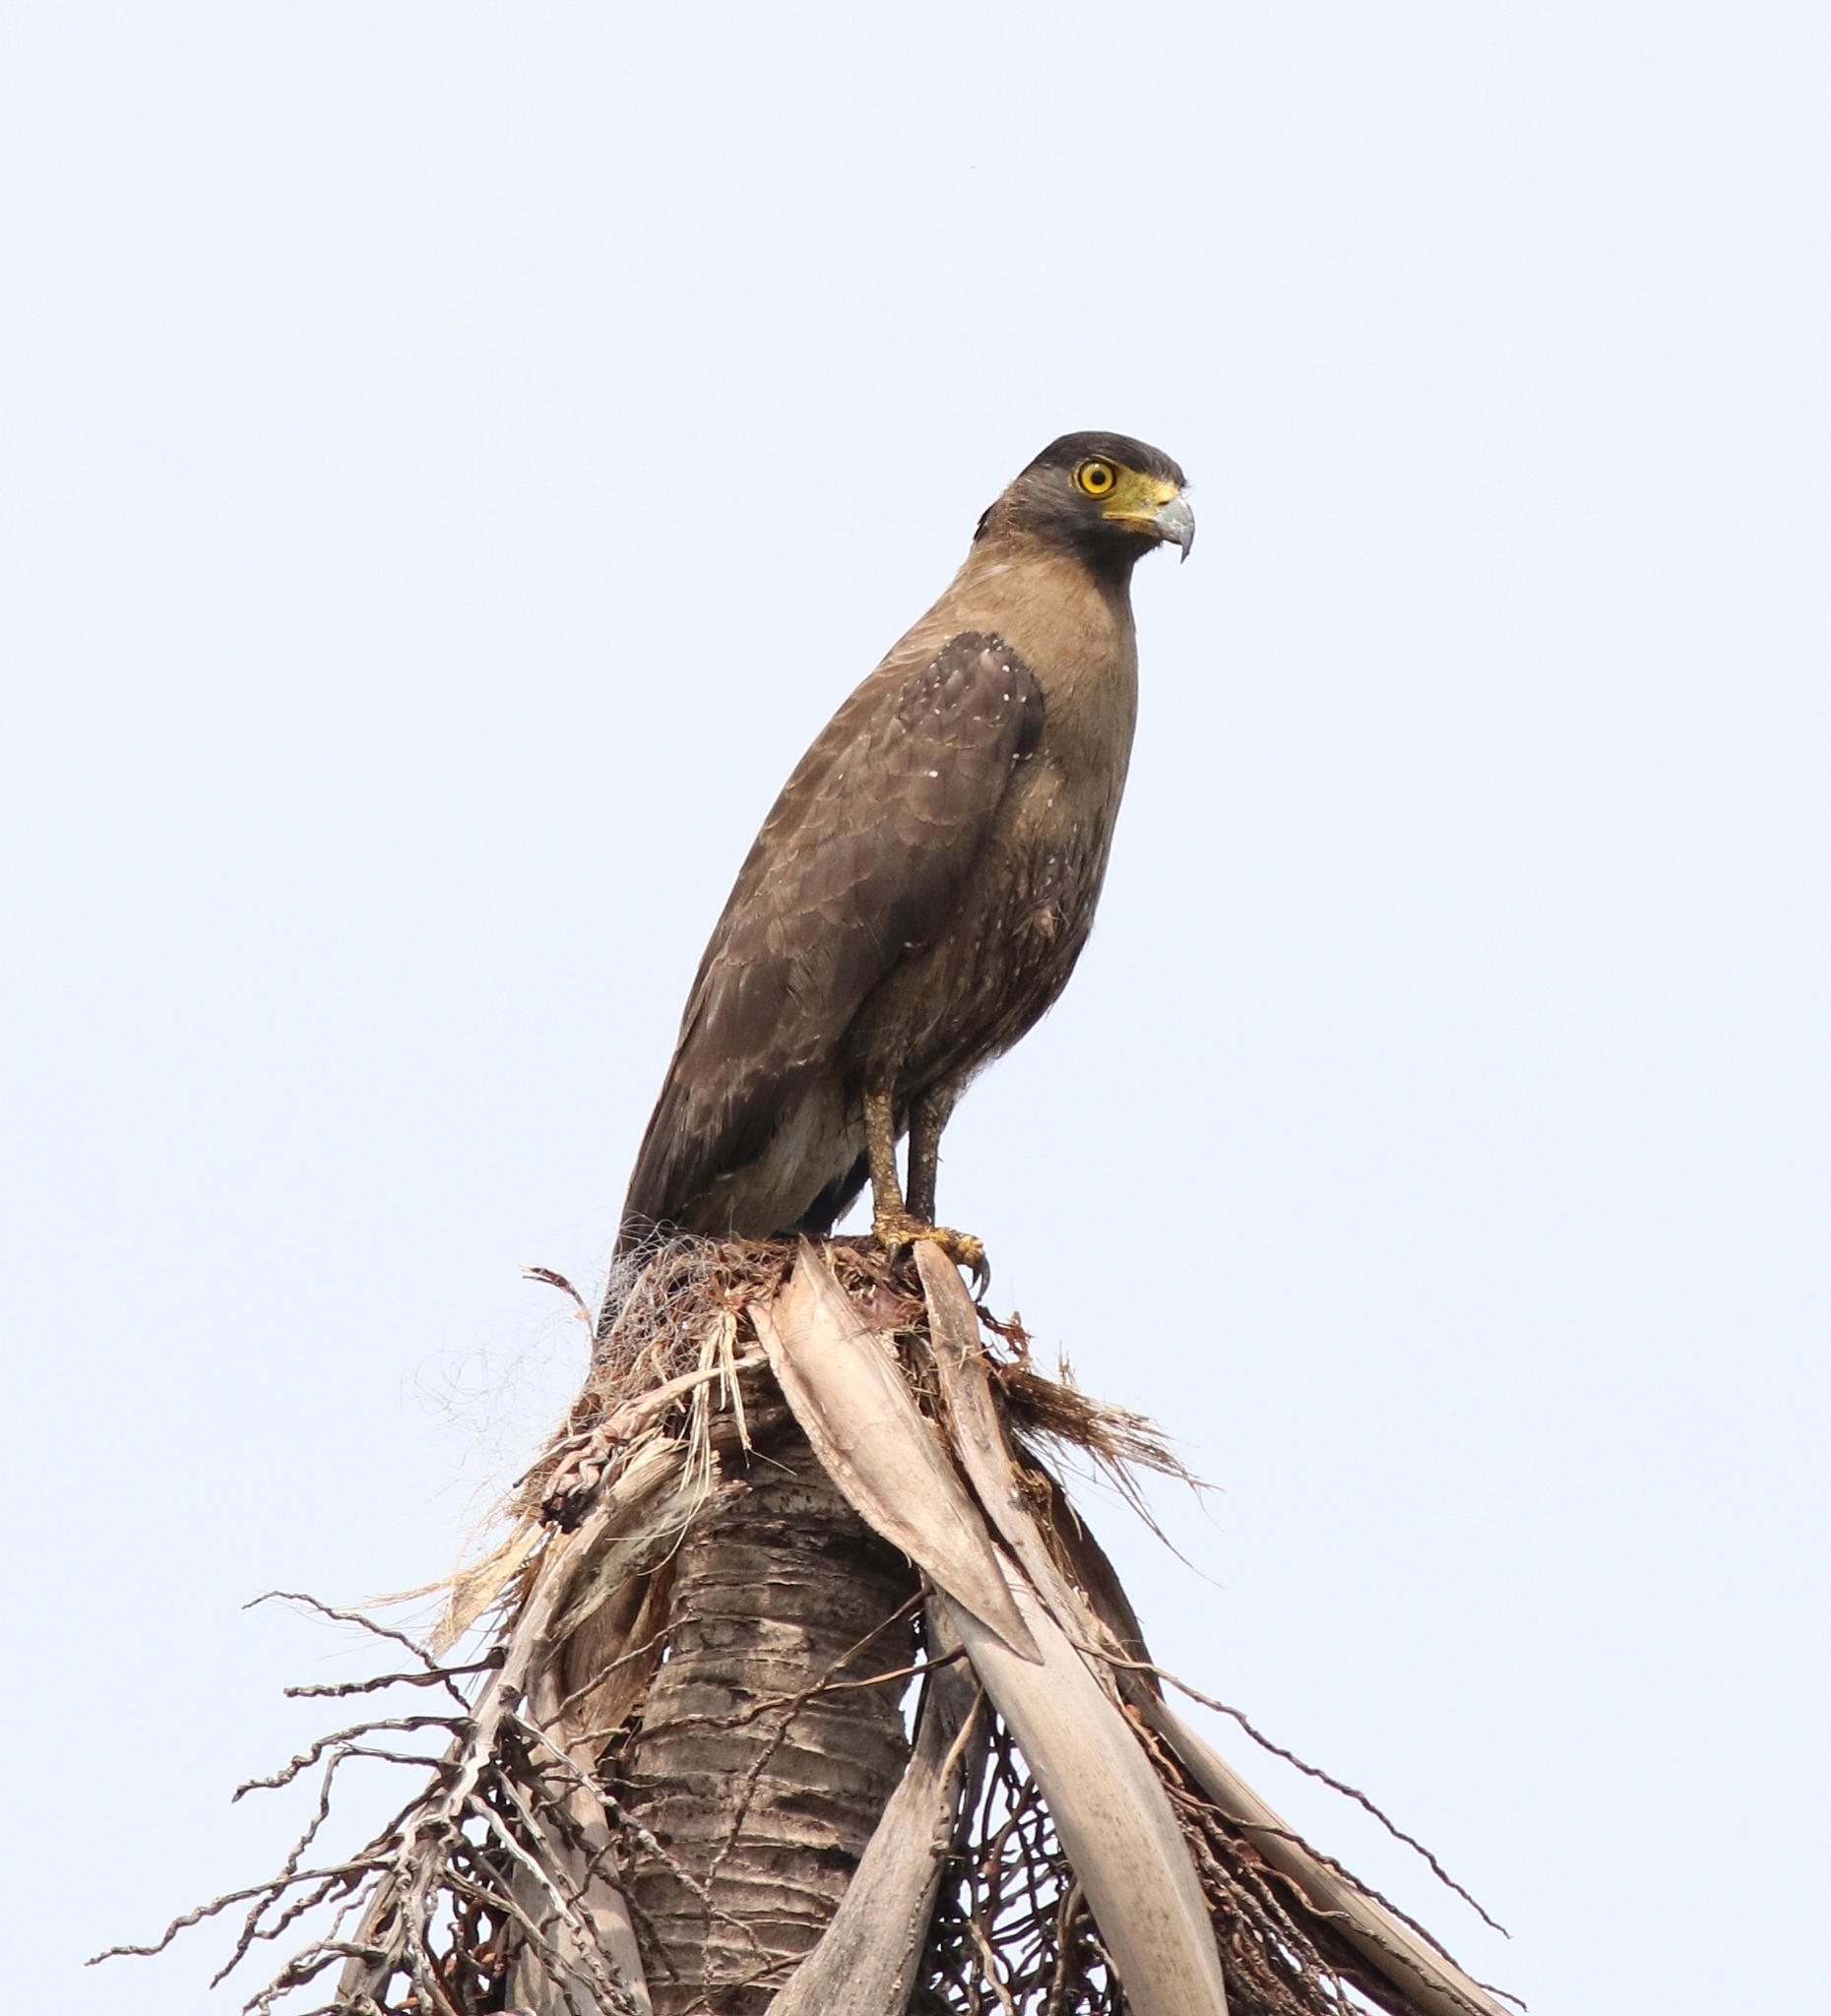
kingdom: Animalia
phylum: Chordata
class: Aves
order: Accipitriformes
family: Accipitridae
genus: Spilornis
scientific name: Spilornis cheela
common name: Crested serpent eagle
